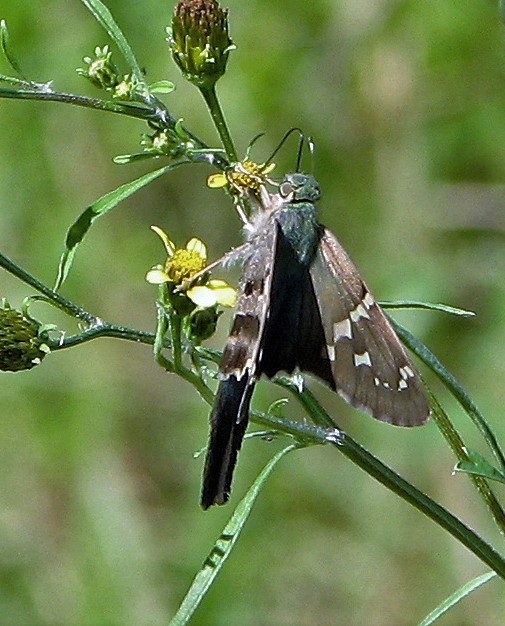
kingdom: Animalia
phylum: Arthropoda
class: Insecta
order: Lepidoptera
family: Hesperiidae
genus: Urbanus
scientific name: Urbanus proteus
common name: Long-tailed skipper
